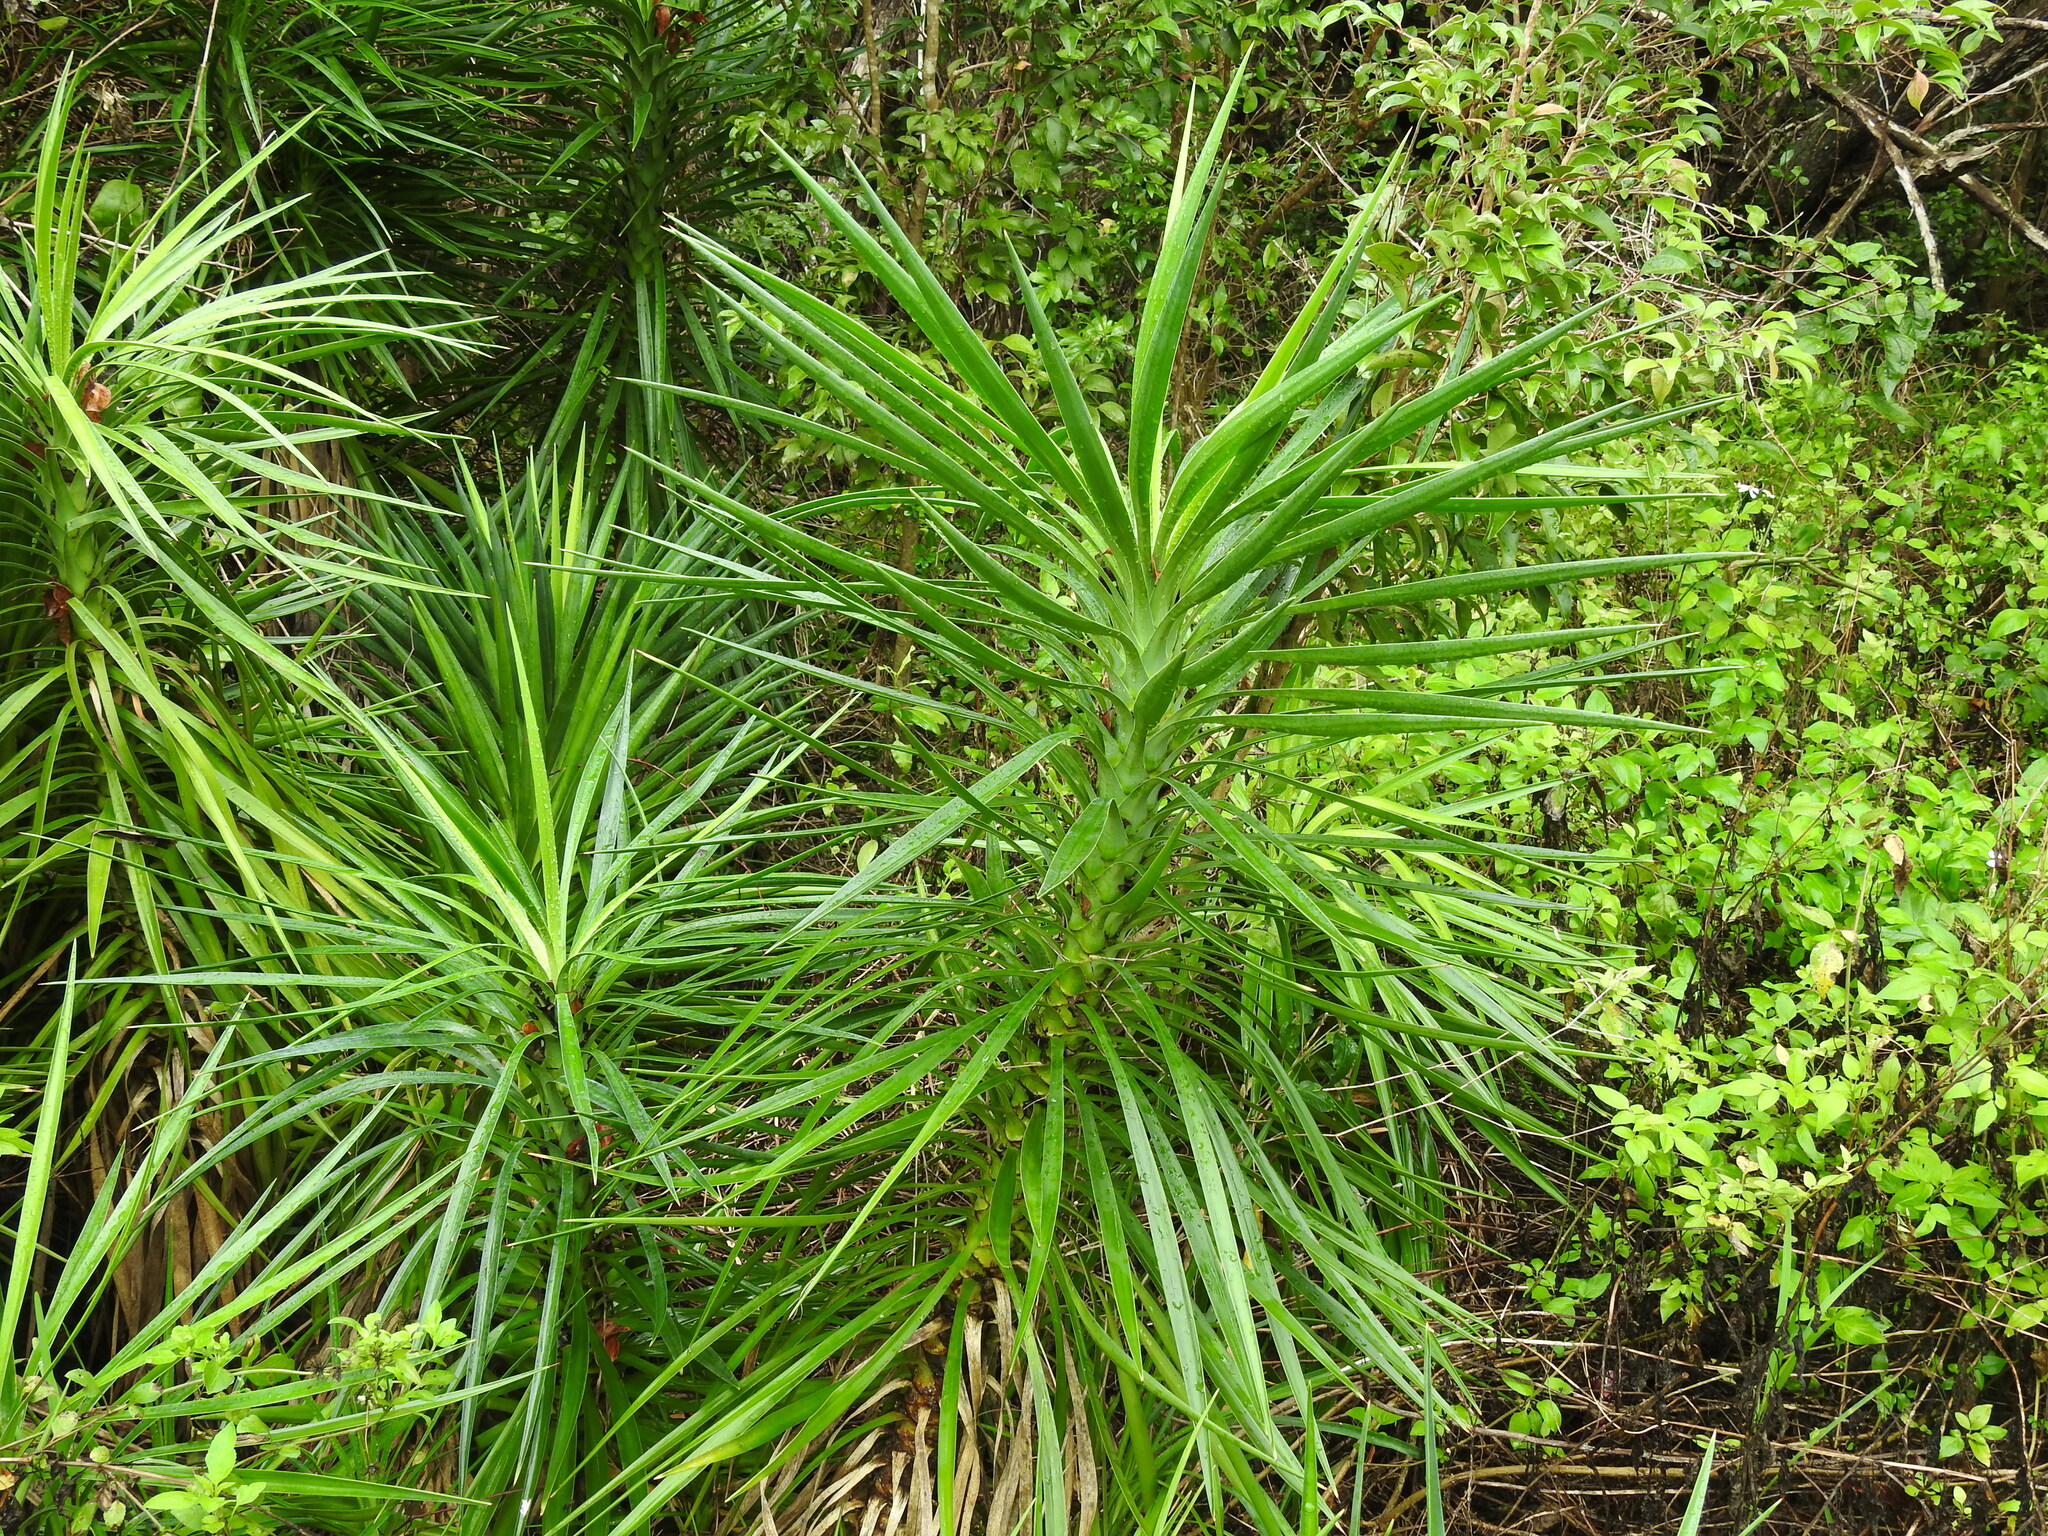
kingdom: Plantae
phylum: Tracheophyta
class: Liliopsida
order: Asparagales
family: Asparagaceae
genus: Yucca
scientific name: Yucca aloifolia
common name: Aloe yucca
